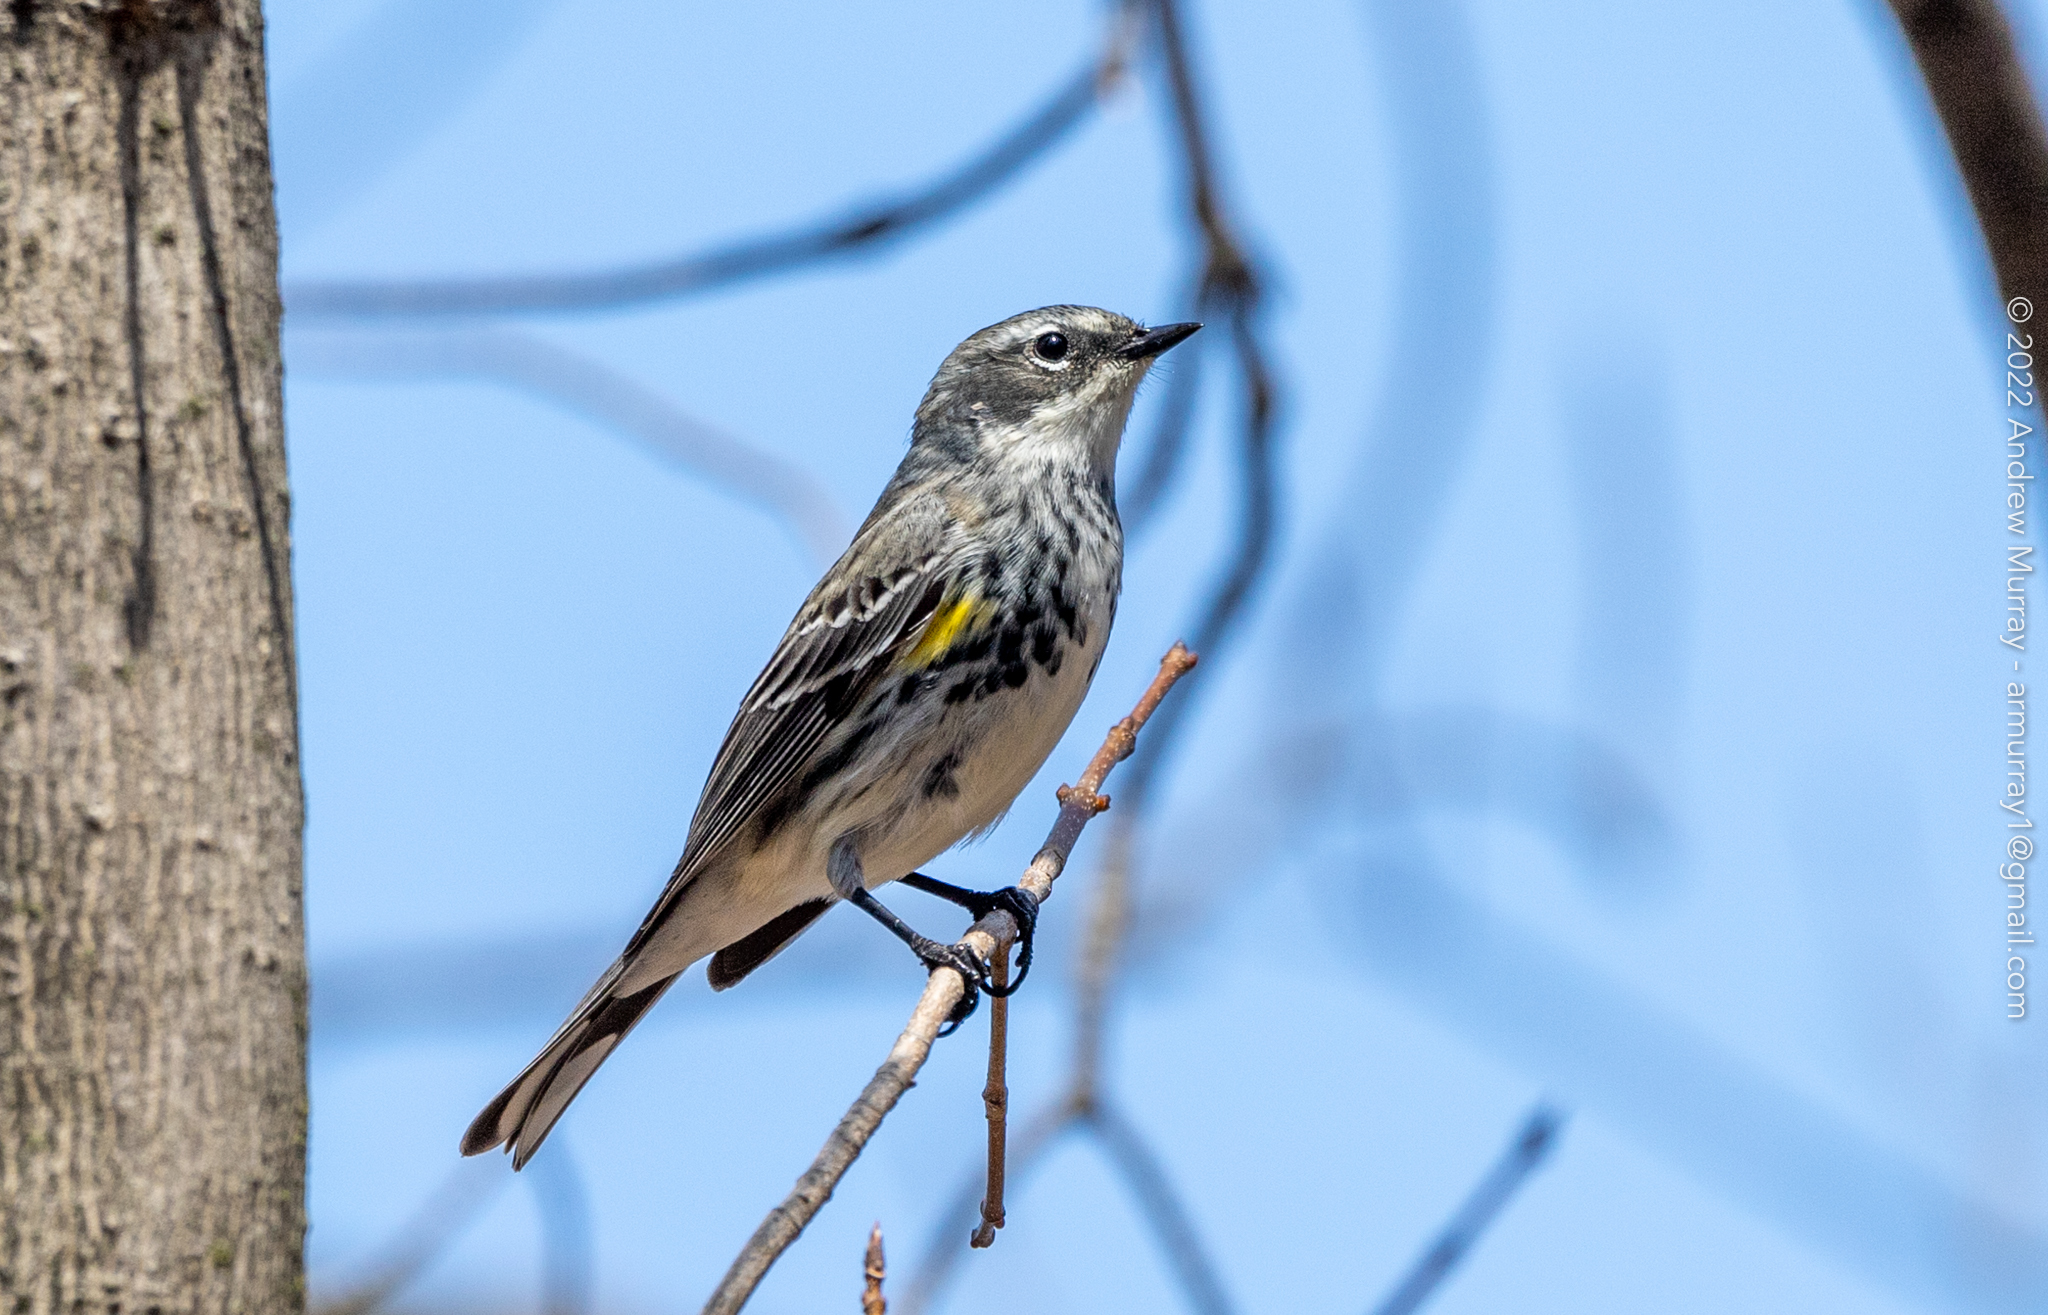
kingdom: Animalia
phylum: Chordata
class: Aves
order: Passeriformes
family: Parulidae
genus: Setophaga
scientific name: Setophaga coronata
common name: Myrtle warbler
